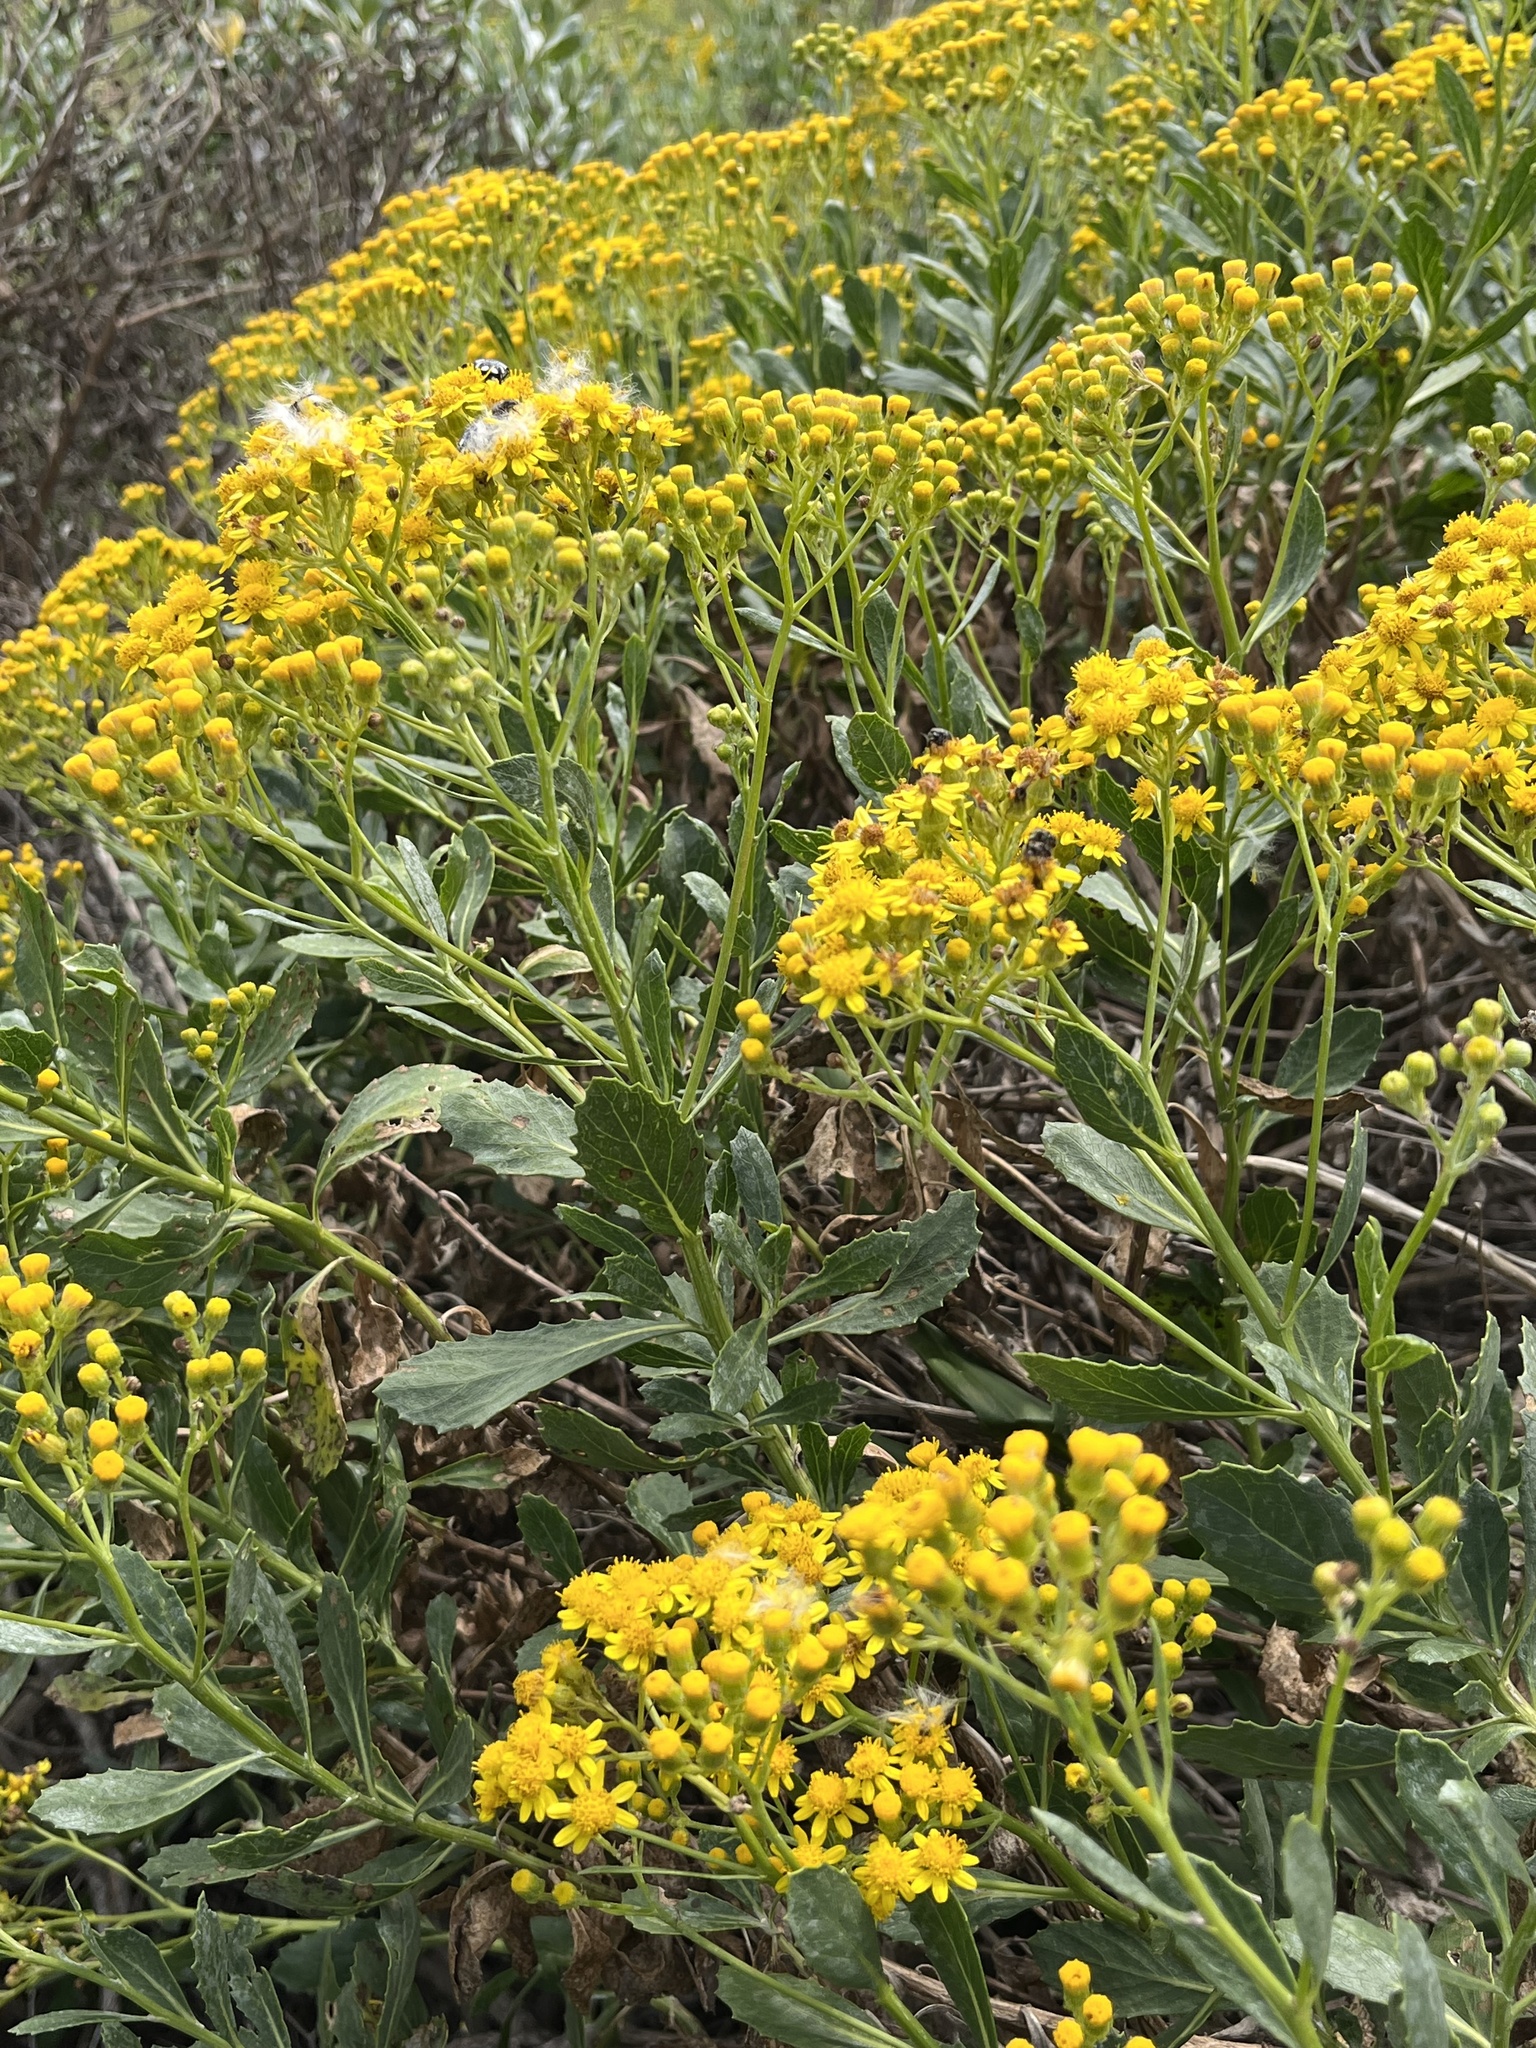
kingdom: Plantae
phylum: Tracheophyta
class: Magnoliopsida
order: Asterales
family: Asteraceae
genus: Senecio
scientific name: Senecio halimifolius
